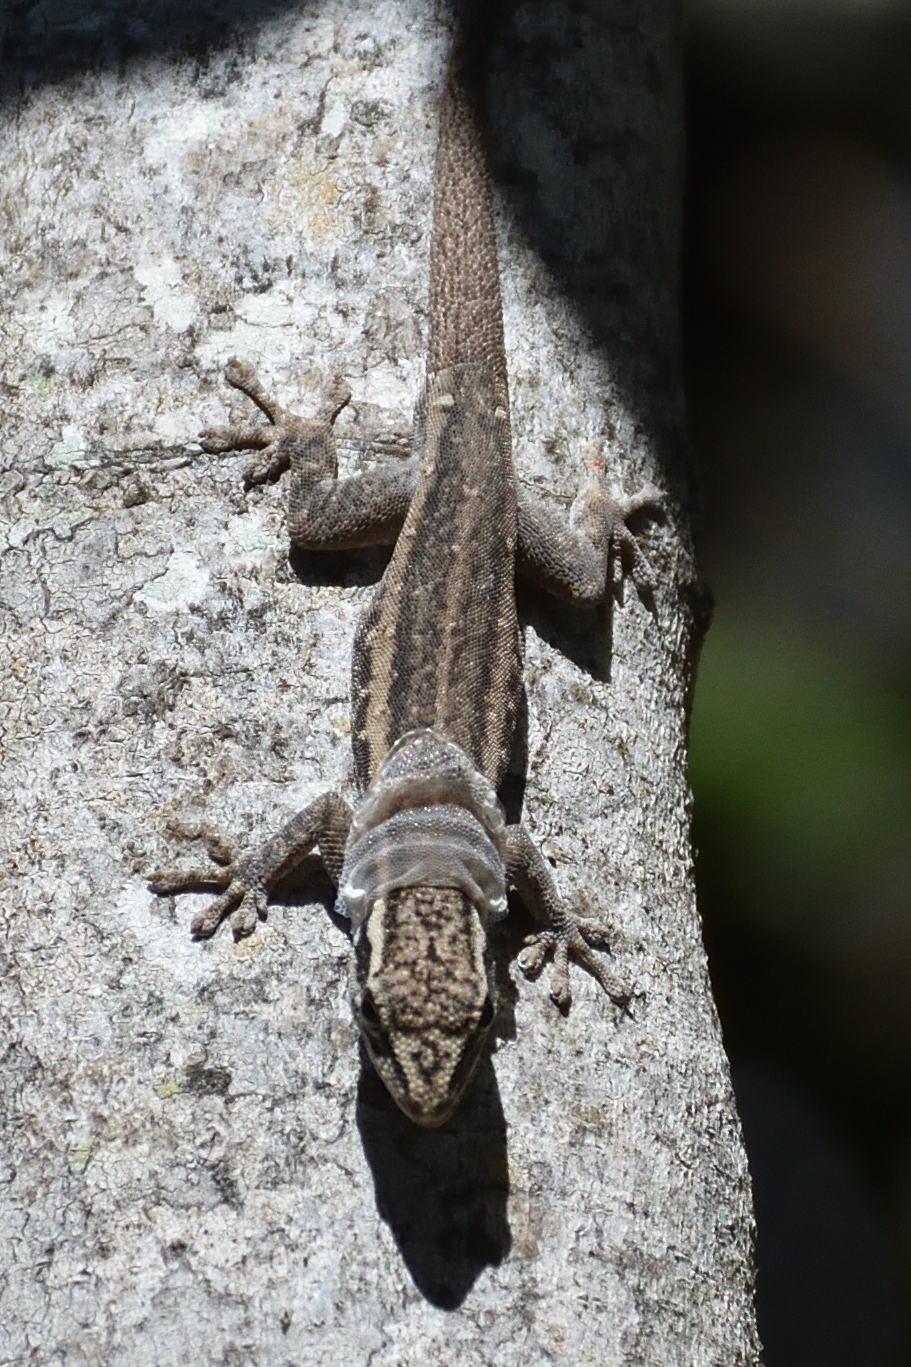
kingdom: Animalia
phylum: Chordata
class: Squamata
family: Gekkonidae
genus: Lygodactylus
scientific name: Lygodactylus capensis
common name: Cape dwarf gecko
